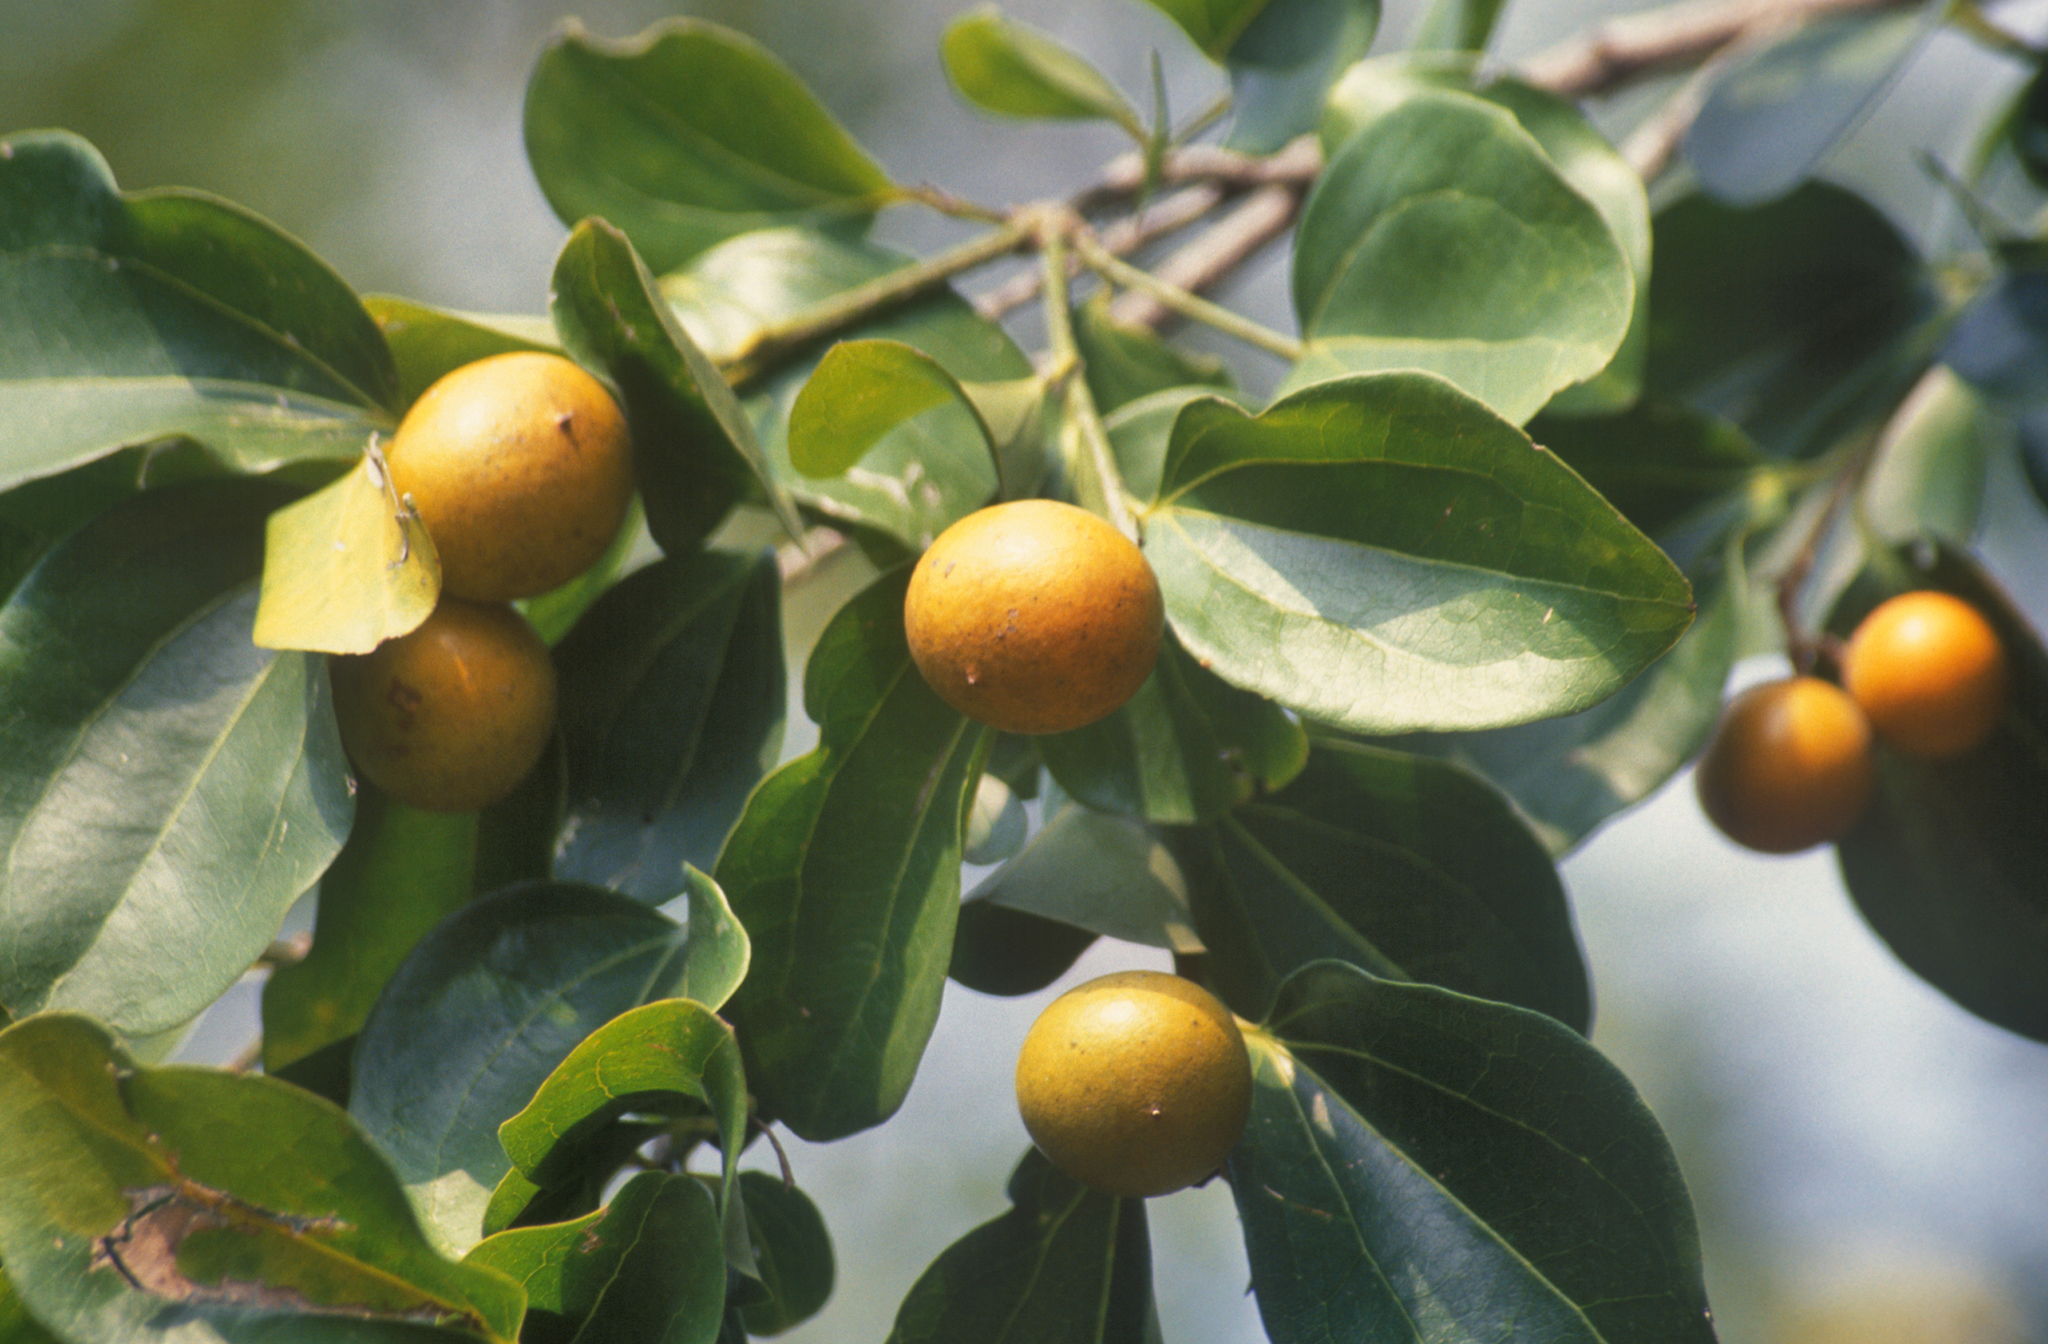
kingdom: Plantae
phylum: Tracheophyta
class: Magnoliopsida
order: Gentianales
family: Loganiaceae
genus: Strychnos
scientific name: Strychnos nux-vomica
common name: Strychninetree
